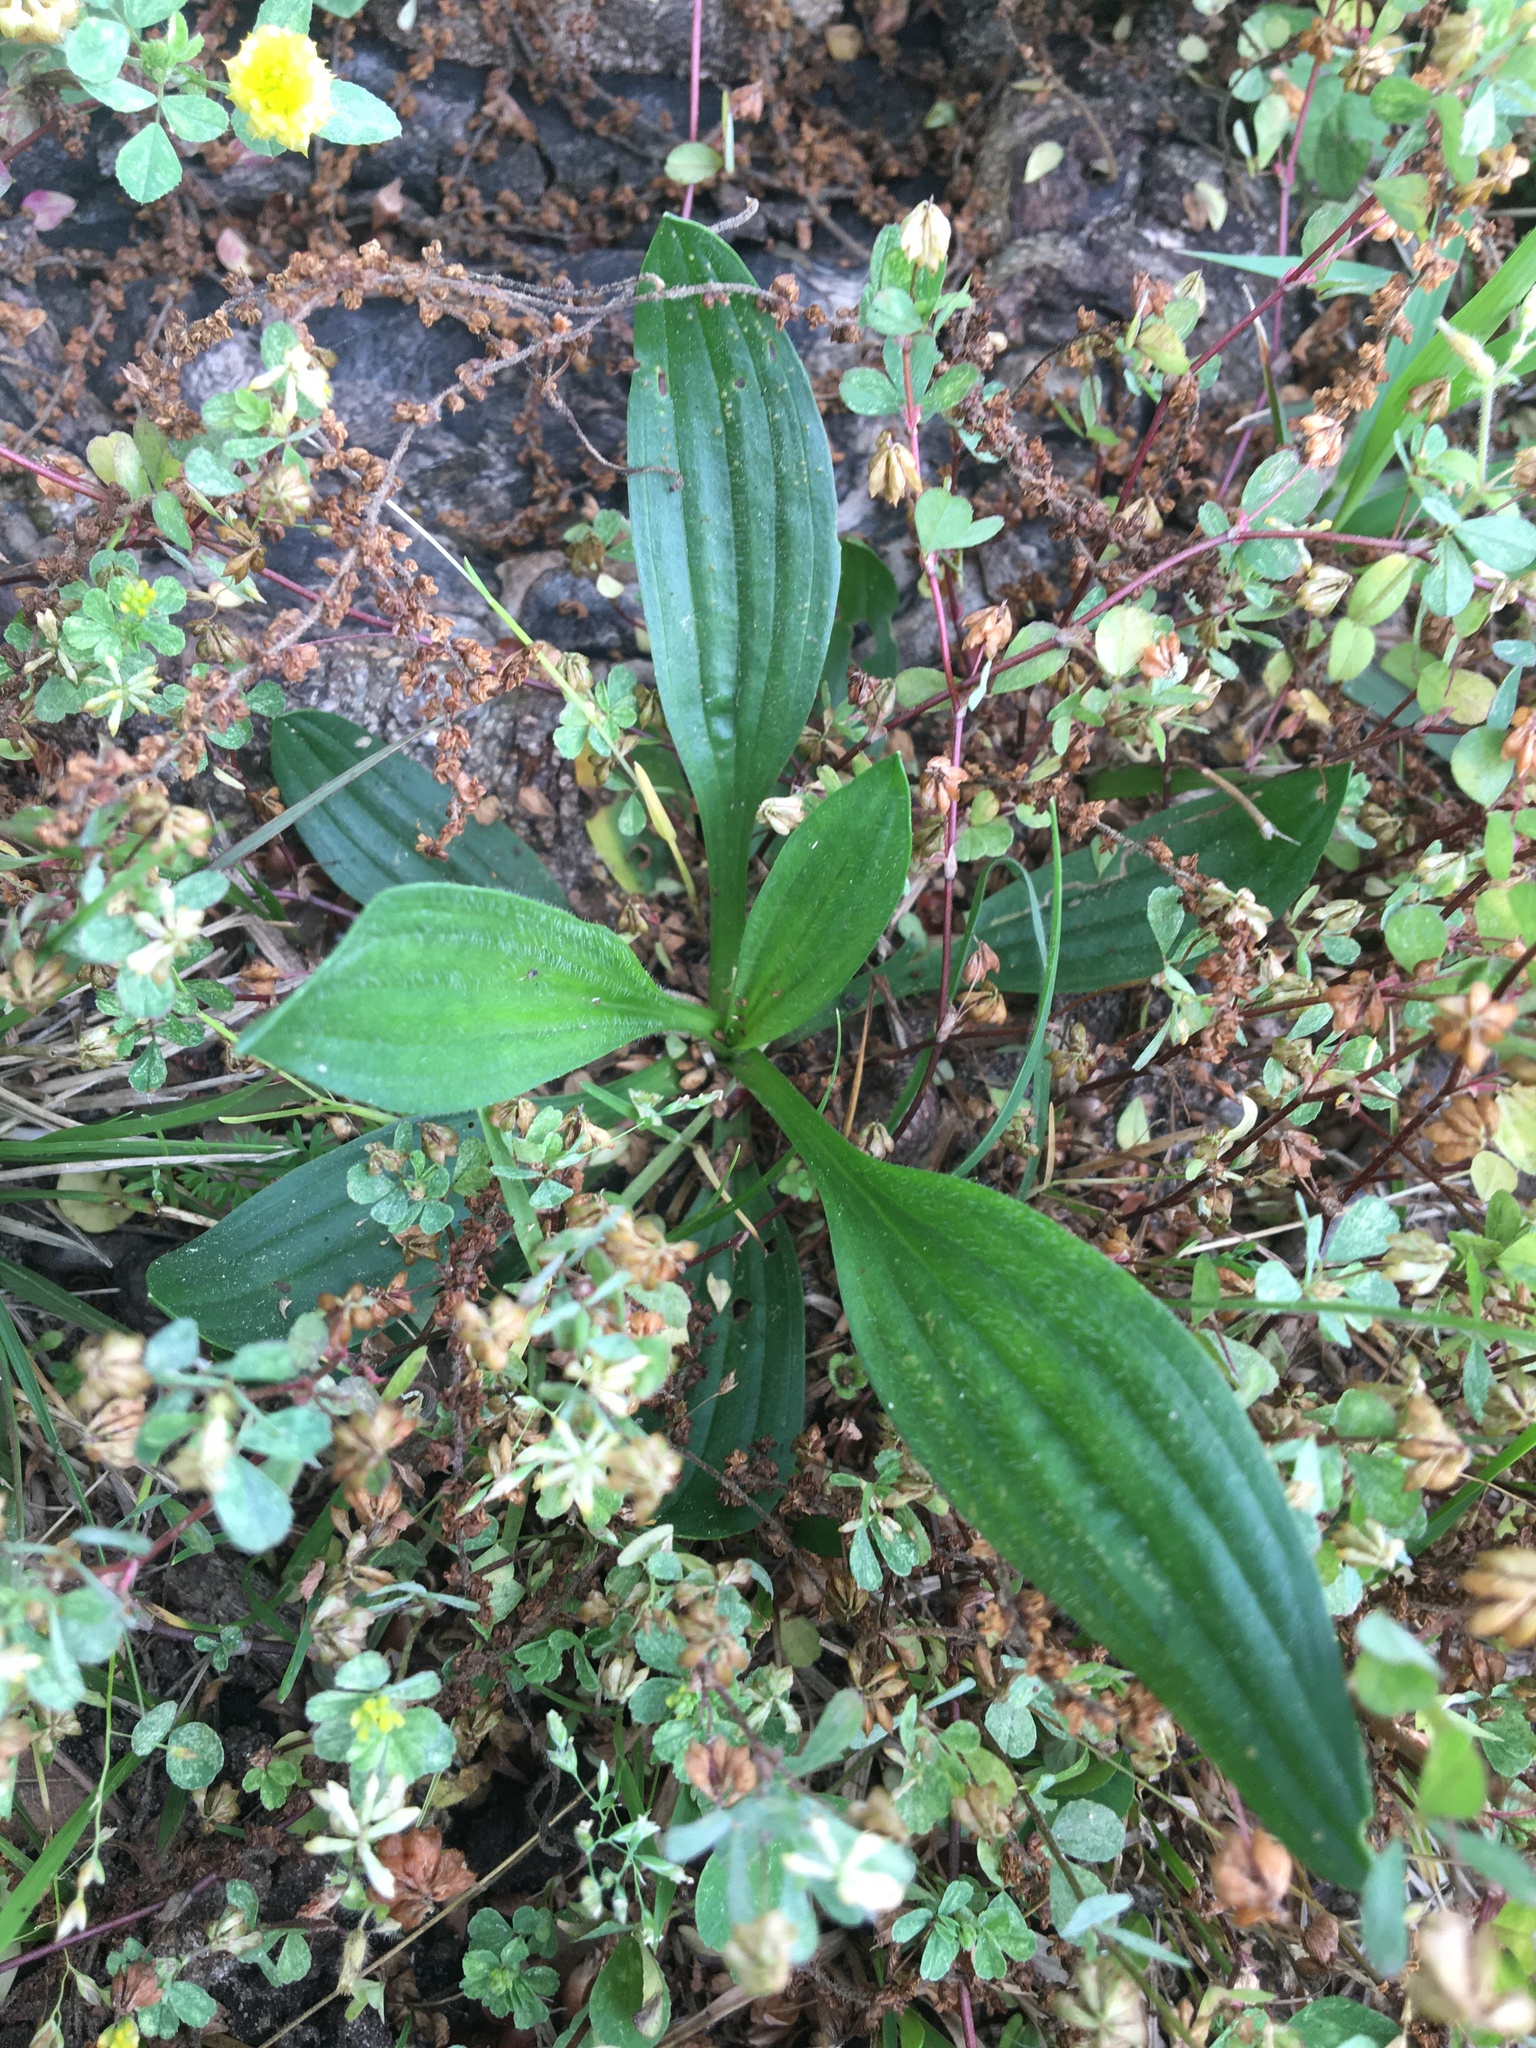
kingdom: Plantae
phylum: Tracheophyta
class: Magnoliopsida
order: Lamiales
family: Plantaginaceae
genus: Plantago
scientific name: Plantago lanceolata
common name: Ribwort plantain
